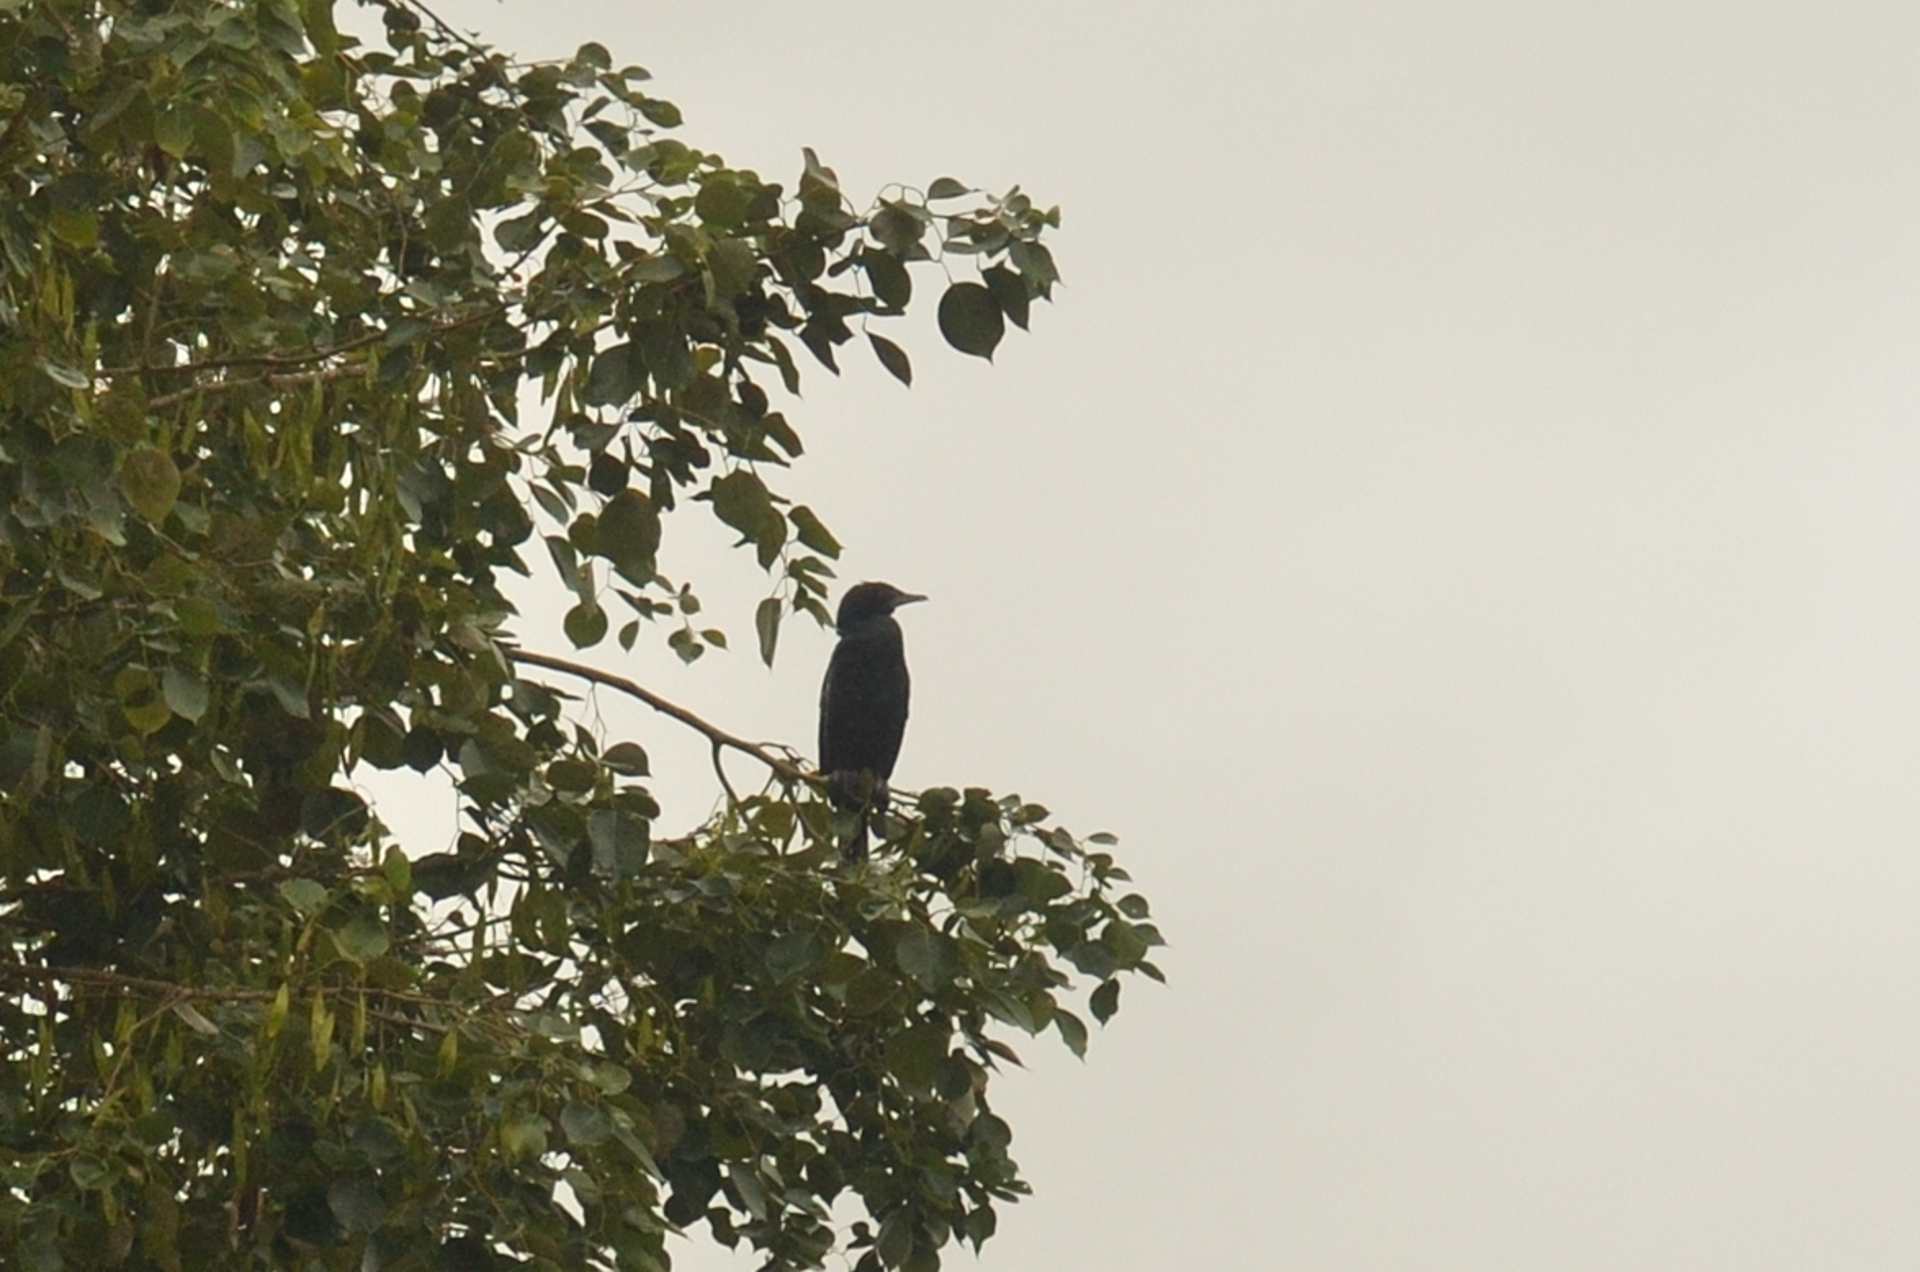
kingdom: Animalia
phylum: Chordata
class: Aves
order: Suliformes
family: Phalacrocoracidae
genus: Microcarbo
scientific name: Microcarbo niger
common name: Little cormorant
